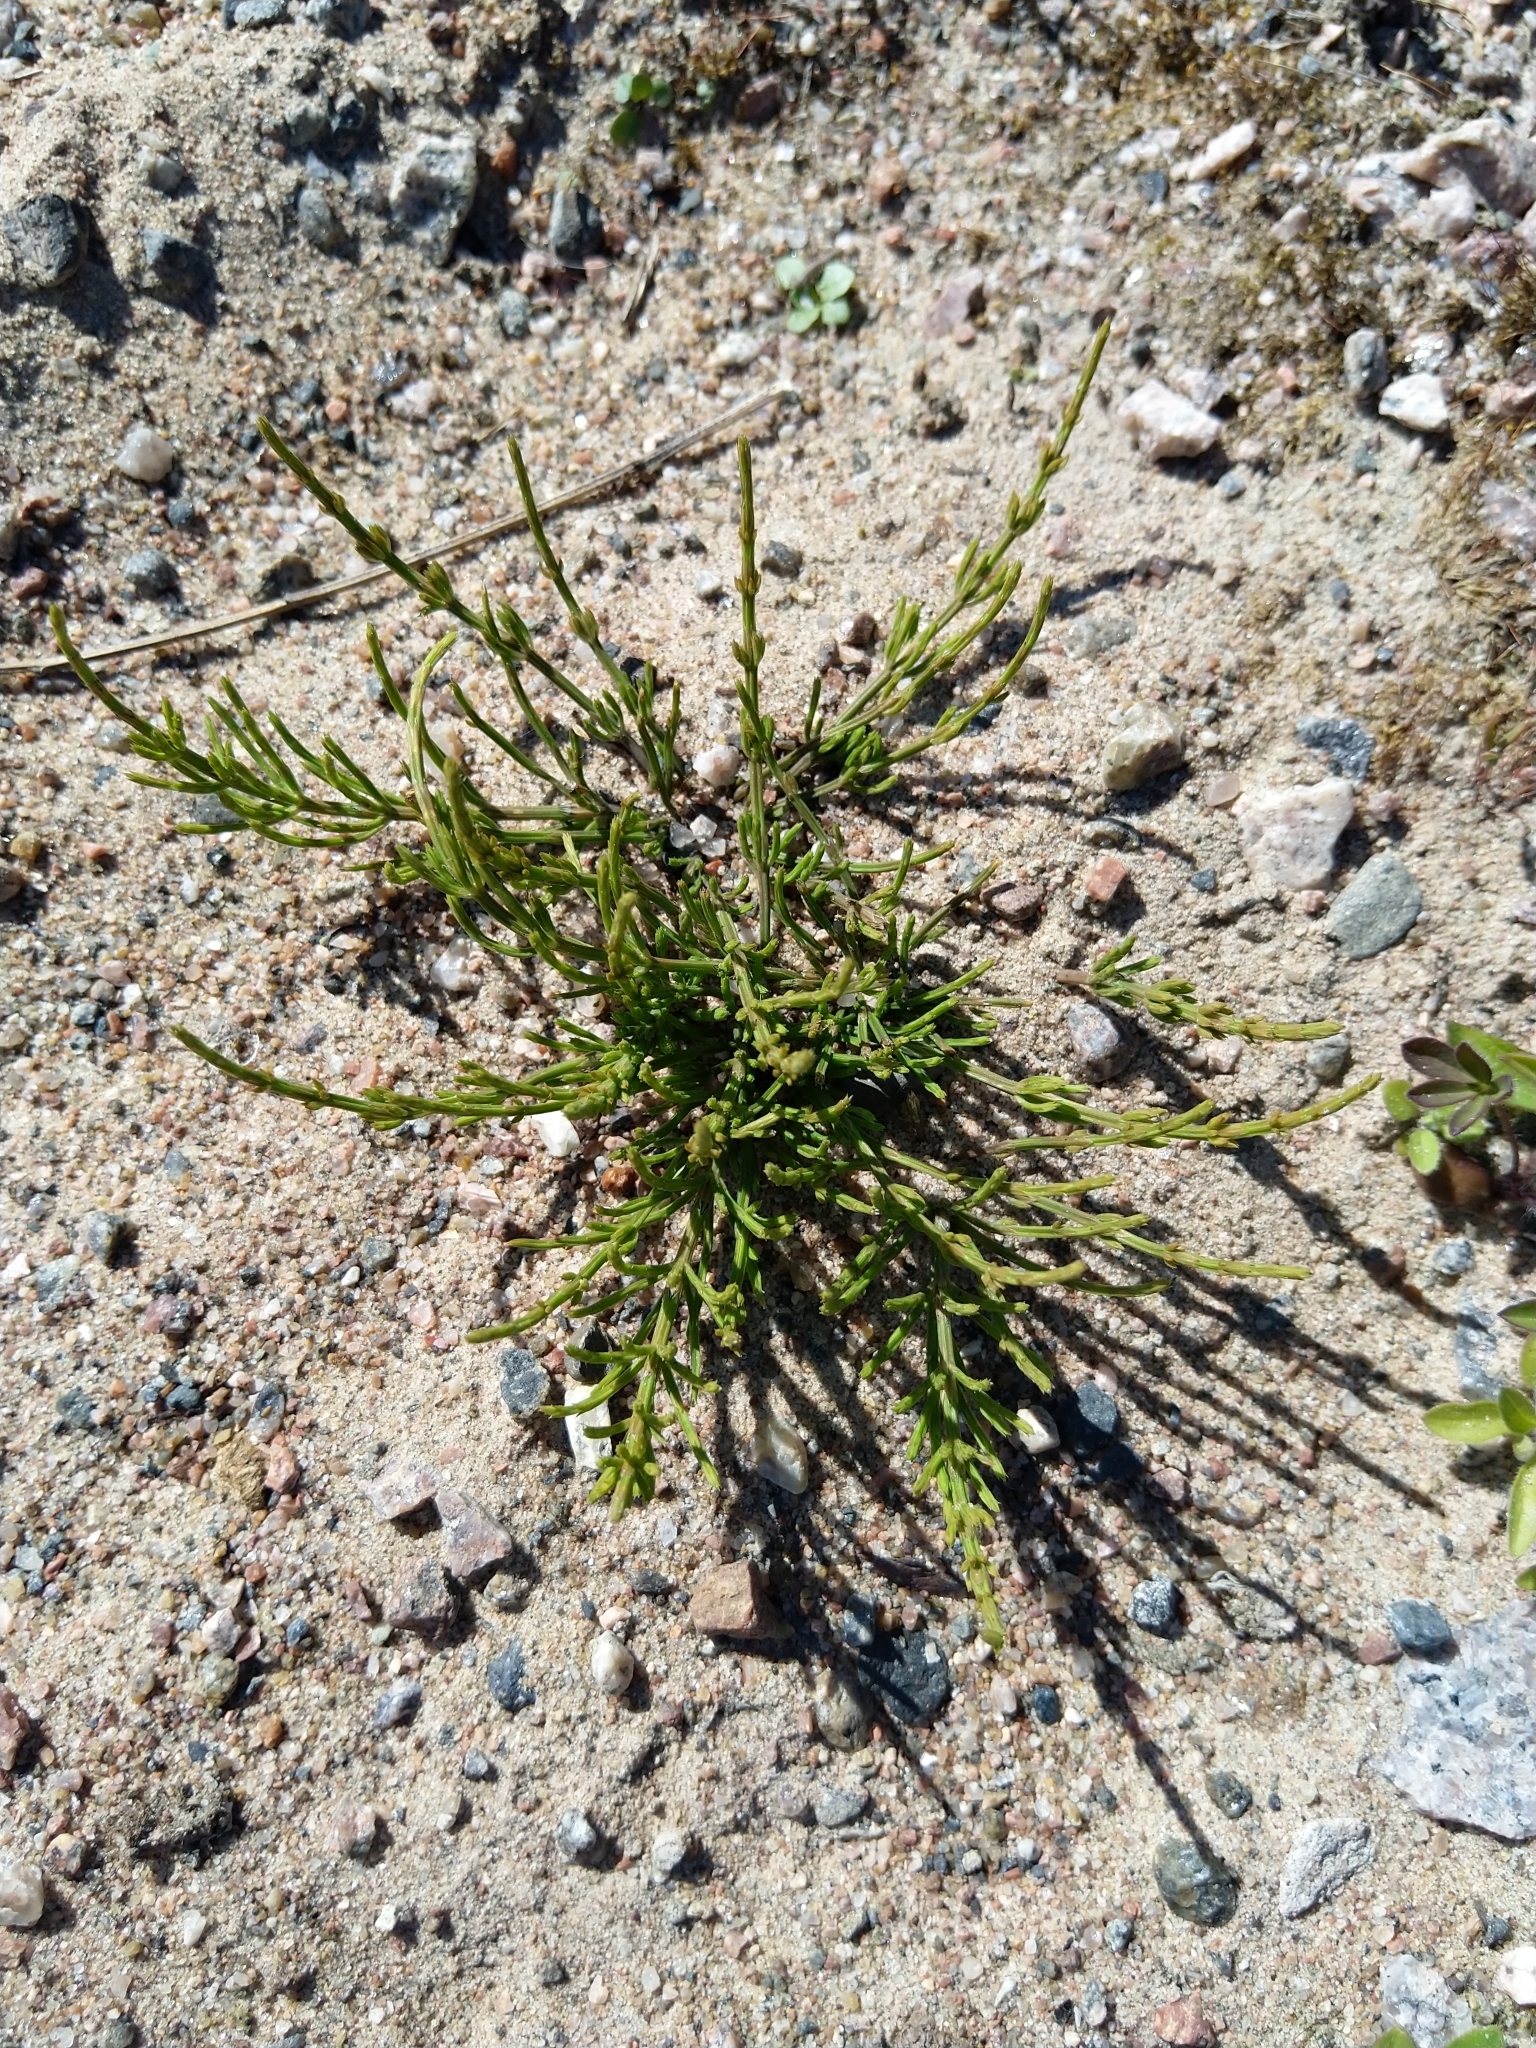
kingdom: Plantae
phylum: Tracheophyta
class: Polypodiopsida
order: Equisetales
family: Equisetaceae
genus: Equisetum
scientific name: Equisetum arvense
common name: Field horsetail
